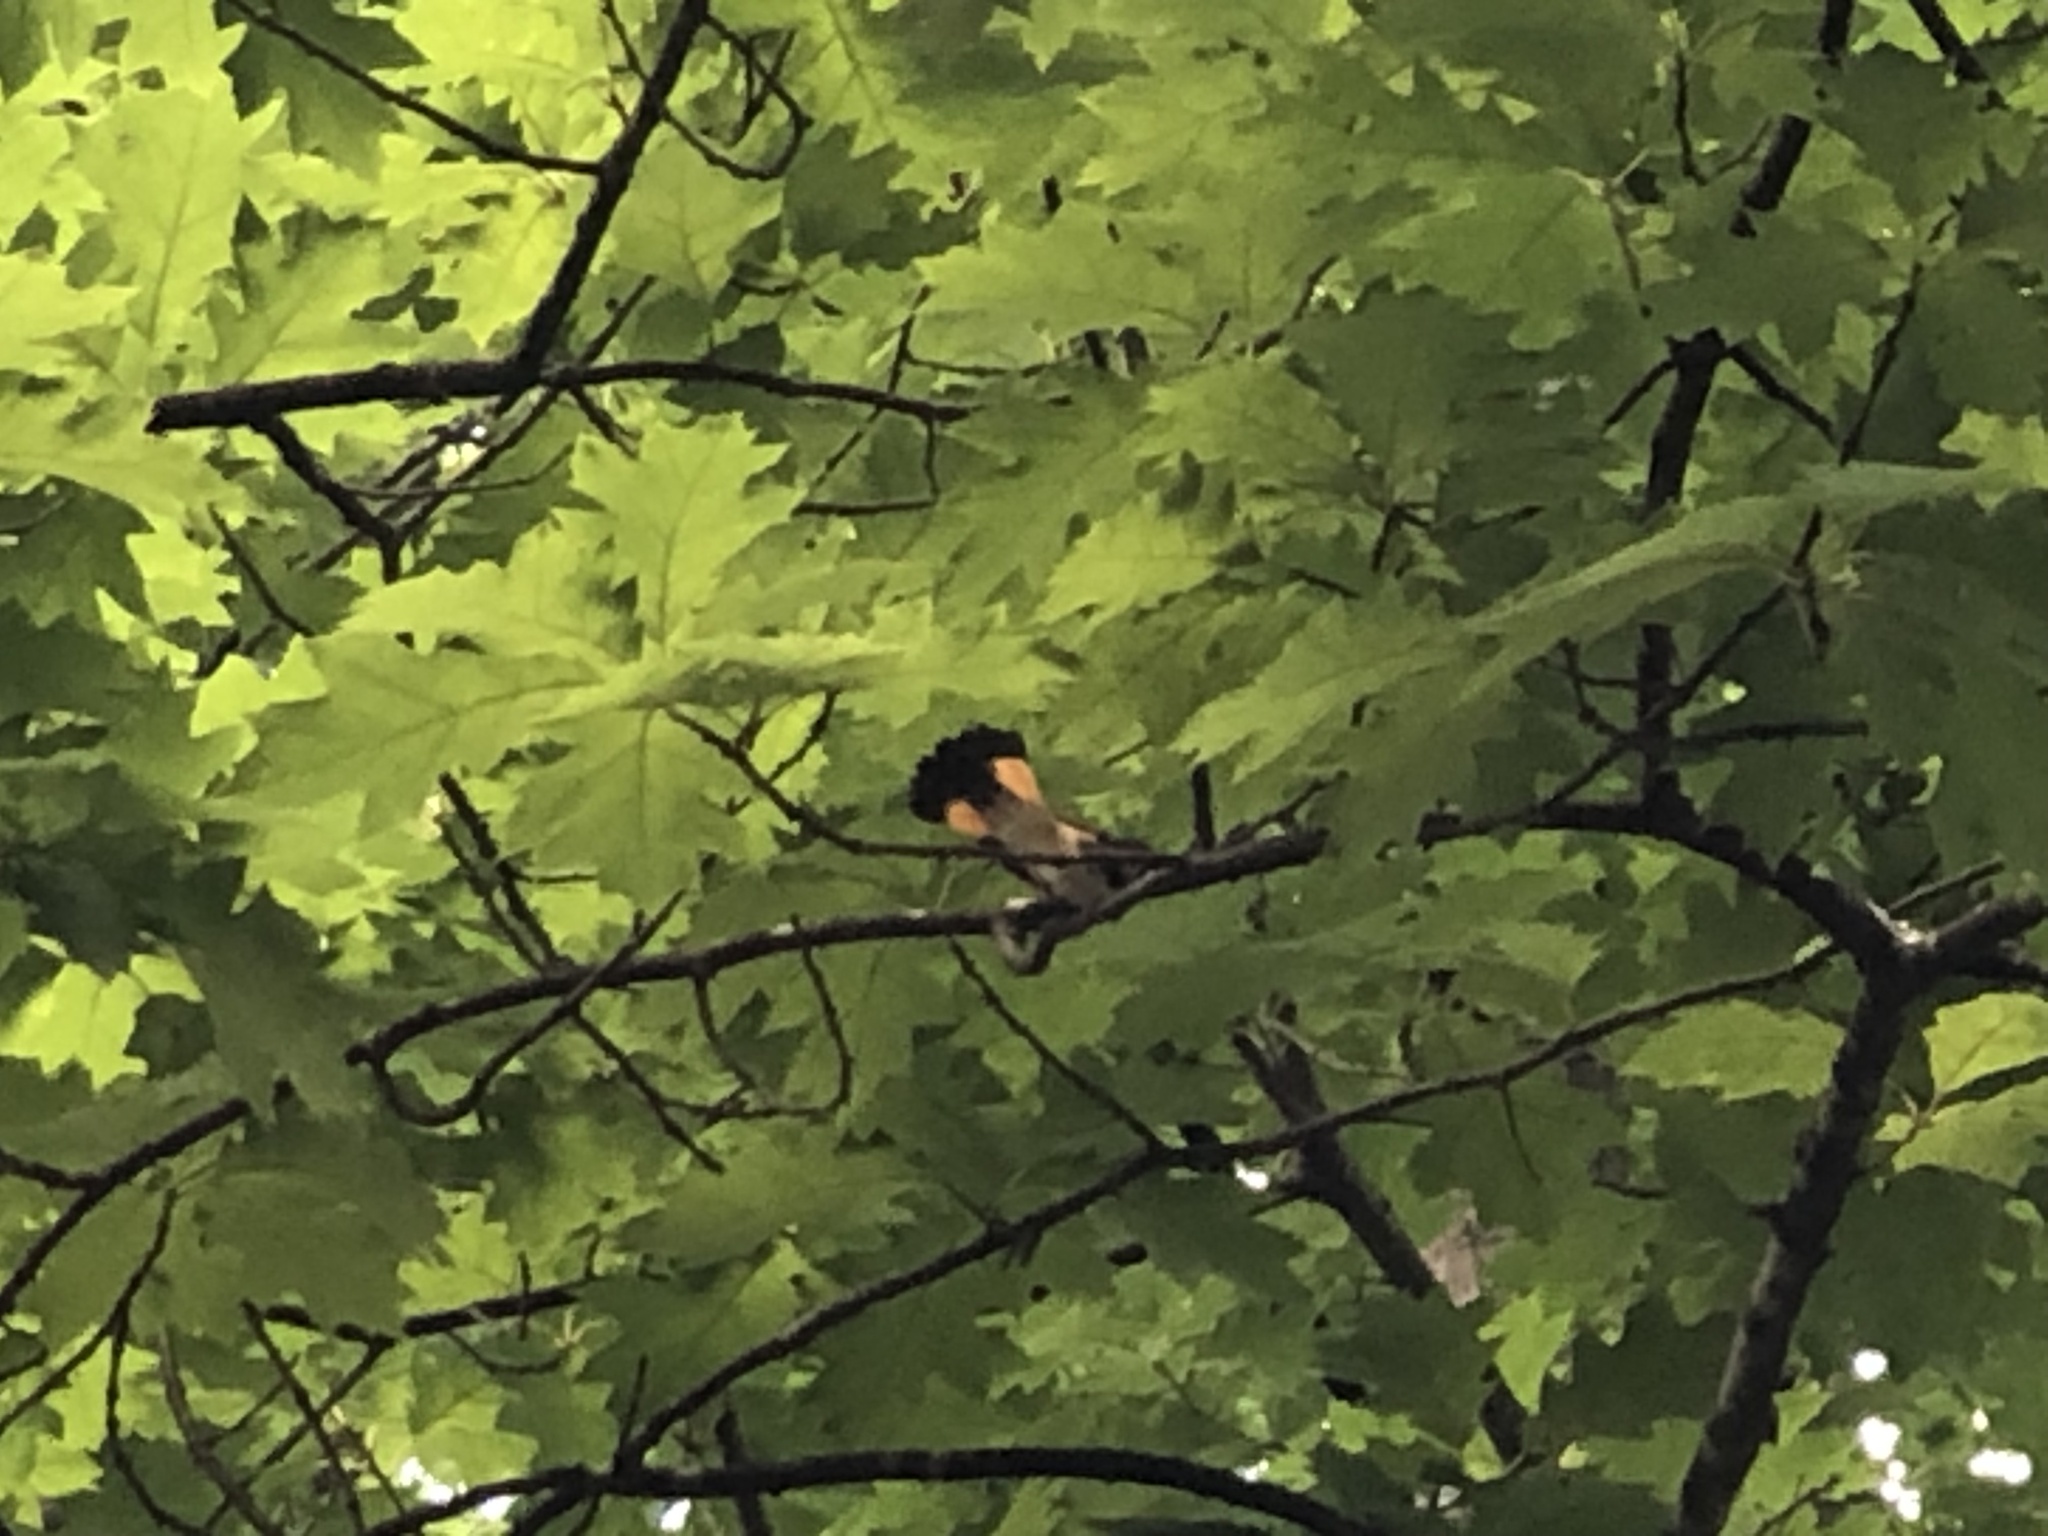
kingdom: Animalia
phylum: Chordata
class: Aves
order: Passeriformes
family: Parulidae
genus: Setophaga
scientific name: Setophaga ruticilla
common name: American redstart
